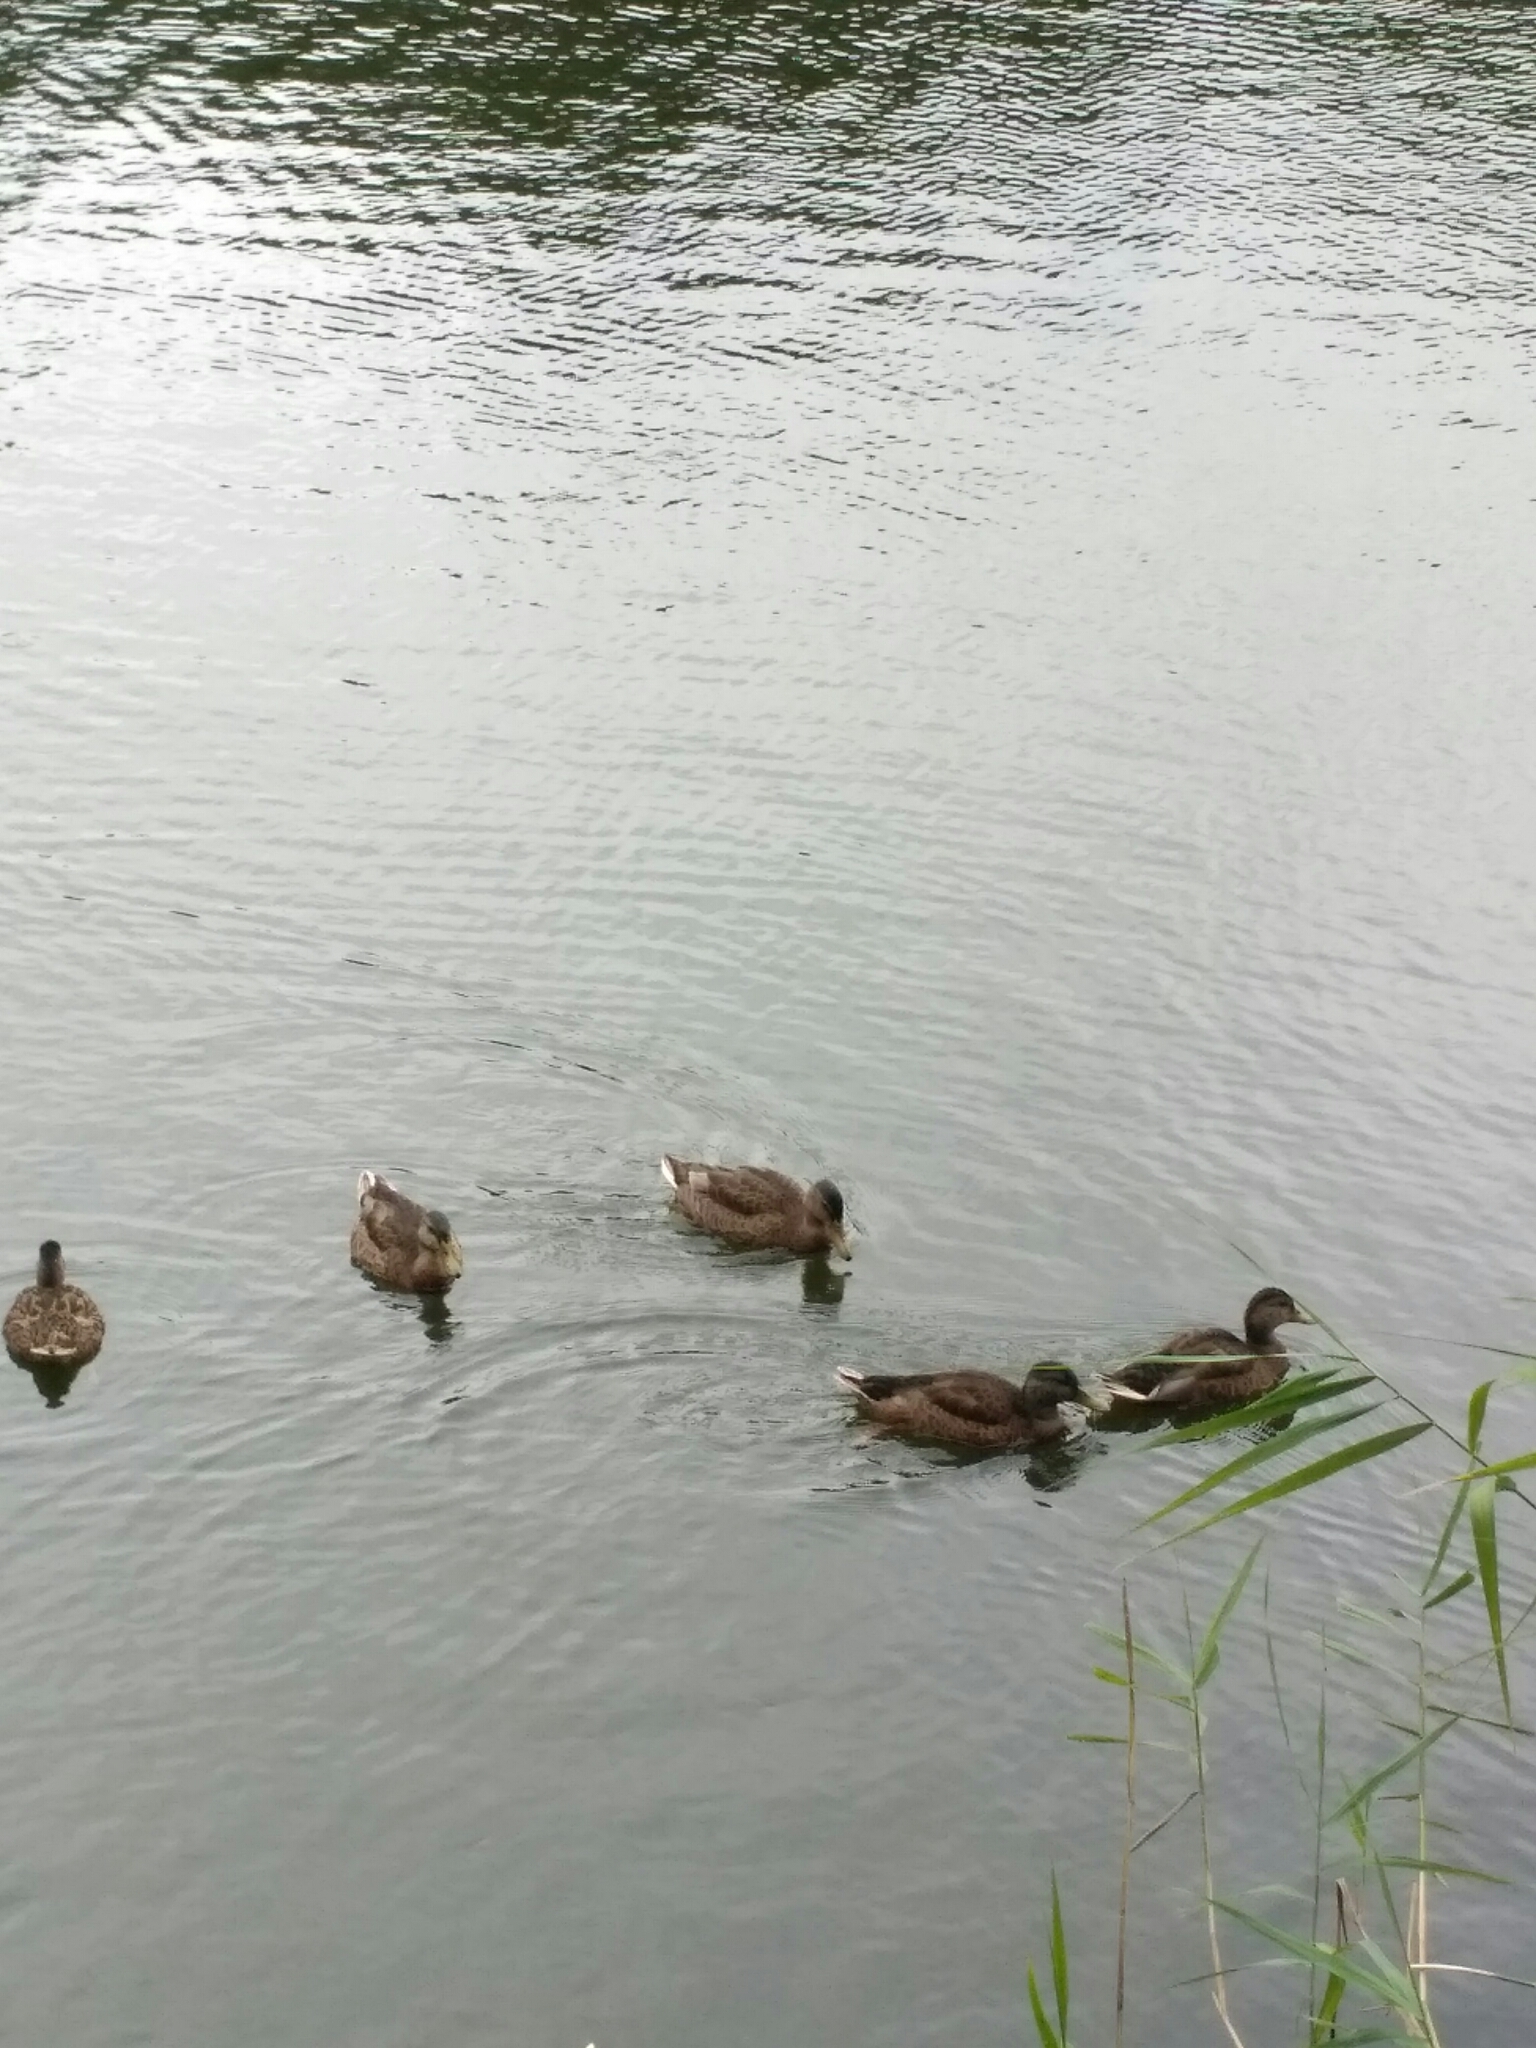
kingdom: Animalia
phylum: Chordata
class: Aves
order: Anseriformes
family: Anatidae
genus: Anas
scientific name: Anas platyrhynchos
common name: Mallard
